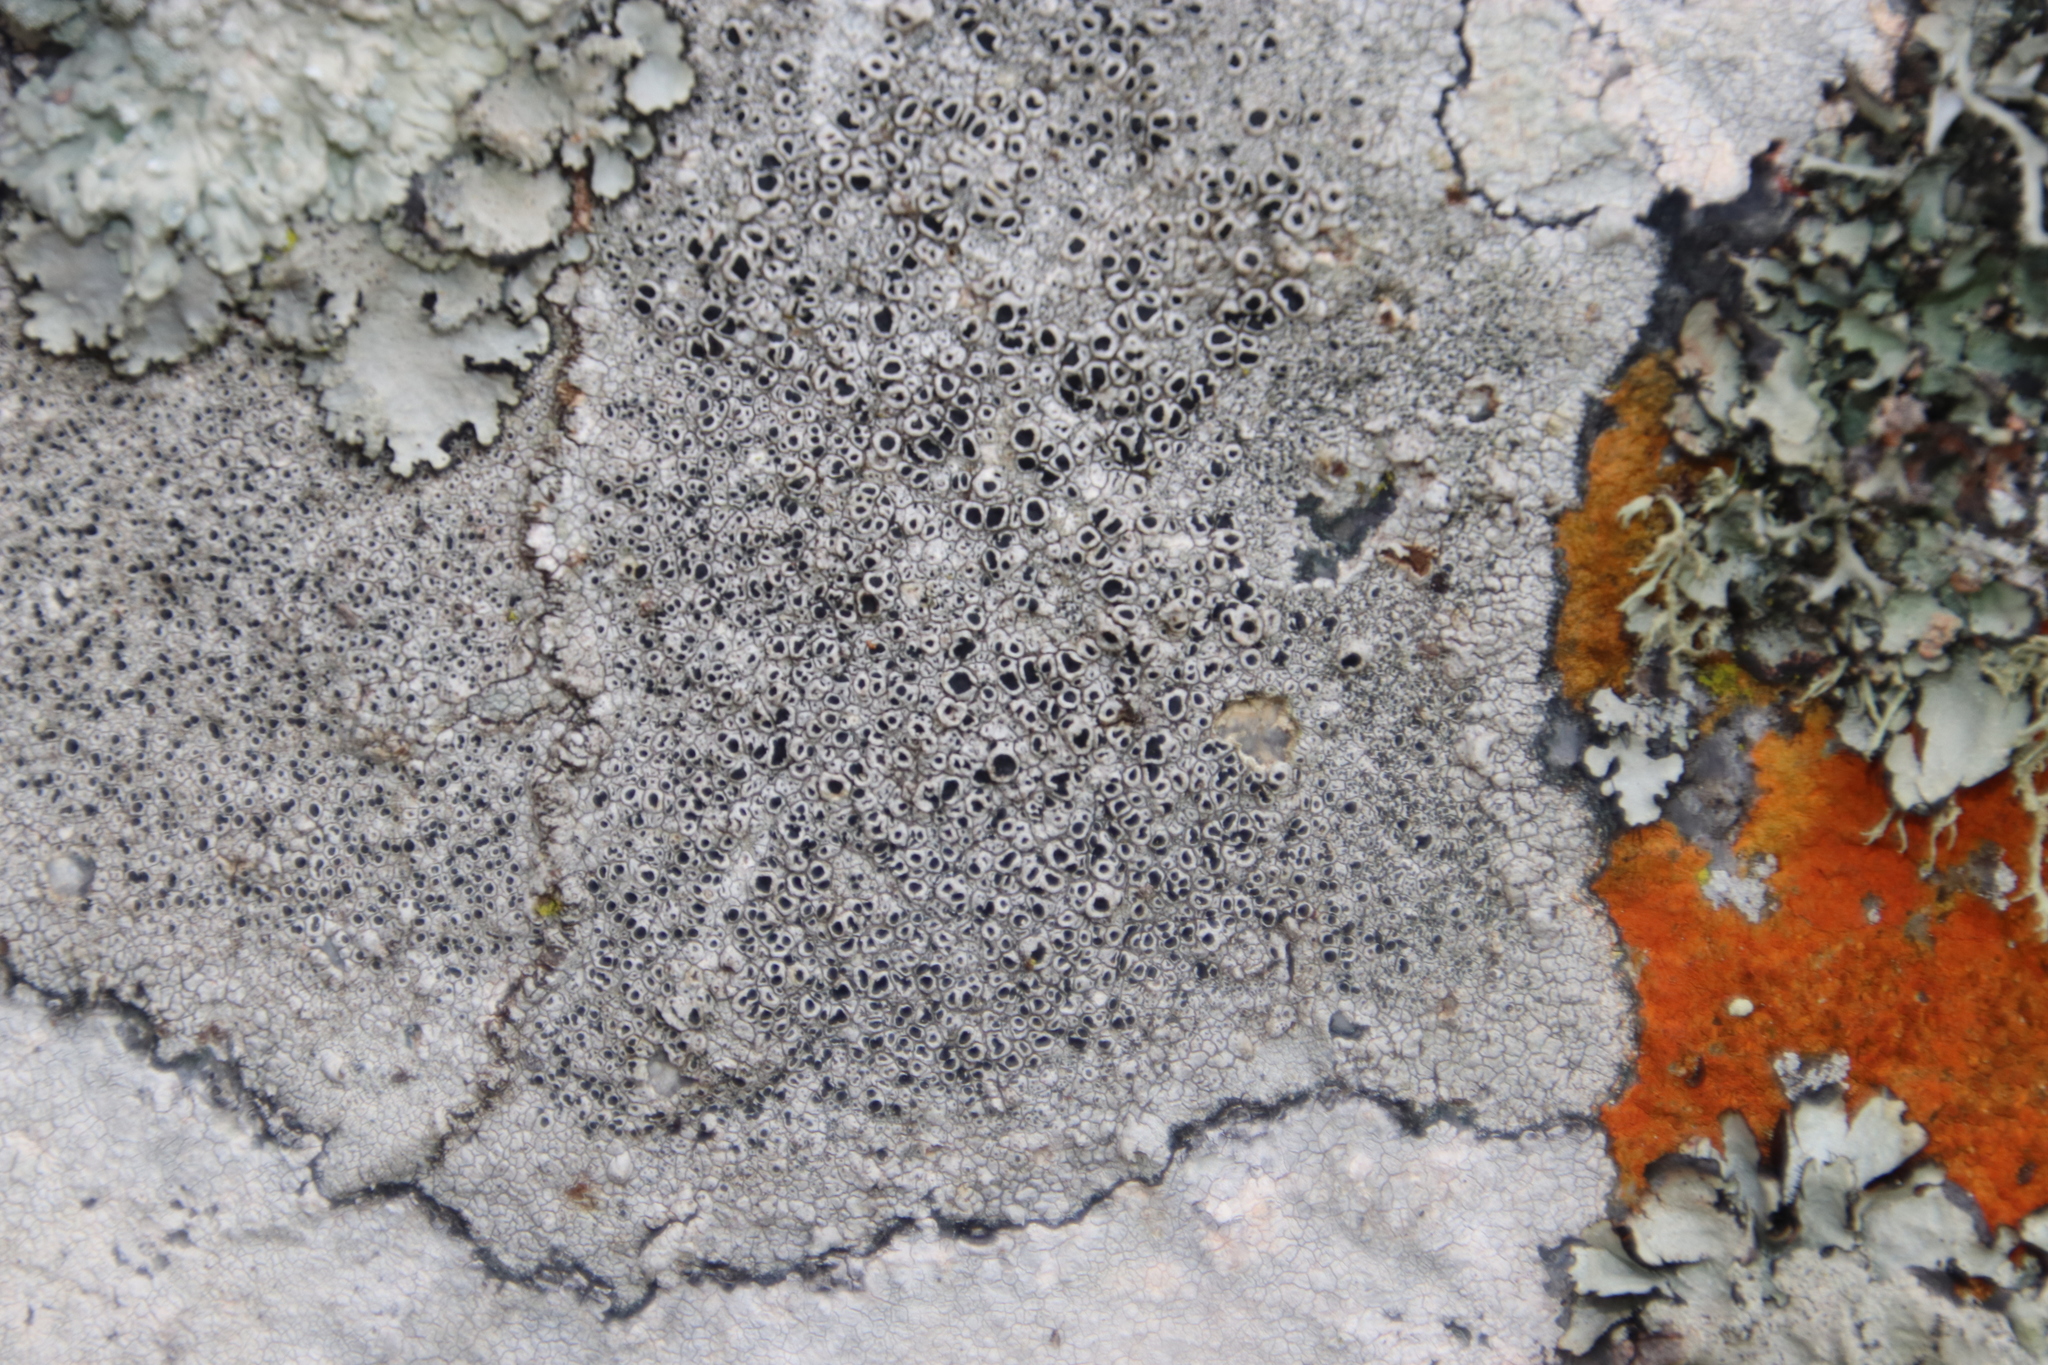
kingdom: Fungi
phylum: Ascomycota
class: Lecanoromycetes
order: Lecanorales
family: Tephromelataceae
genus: Tephromela
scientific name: Tephromela atra
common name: Black shields
